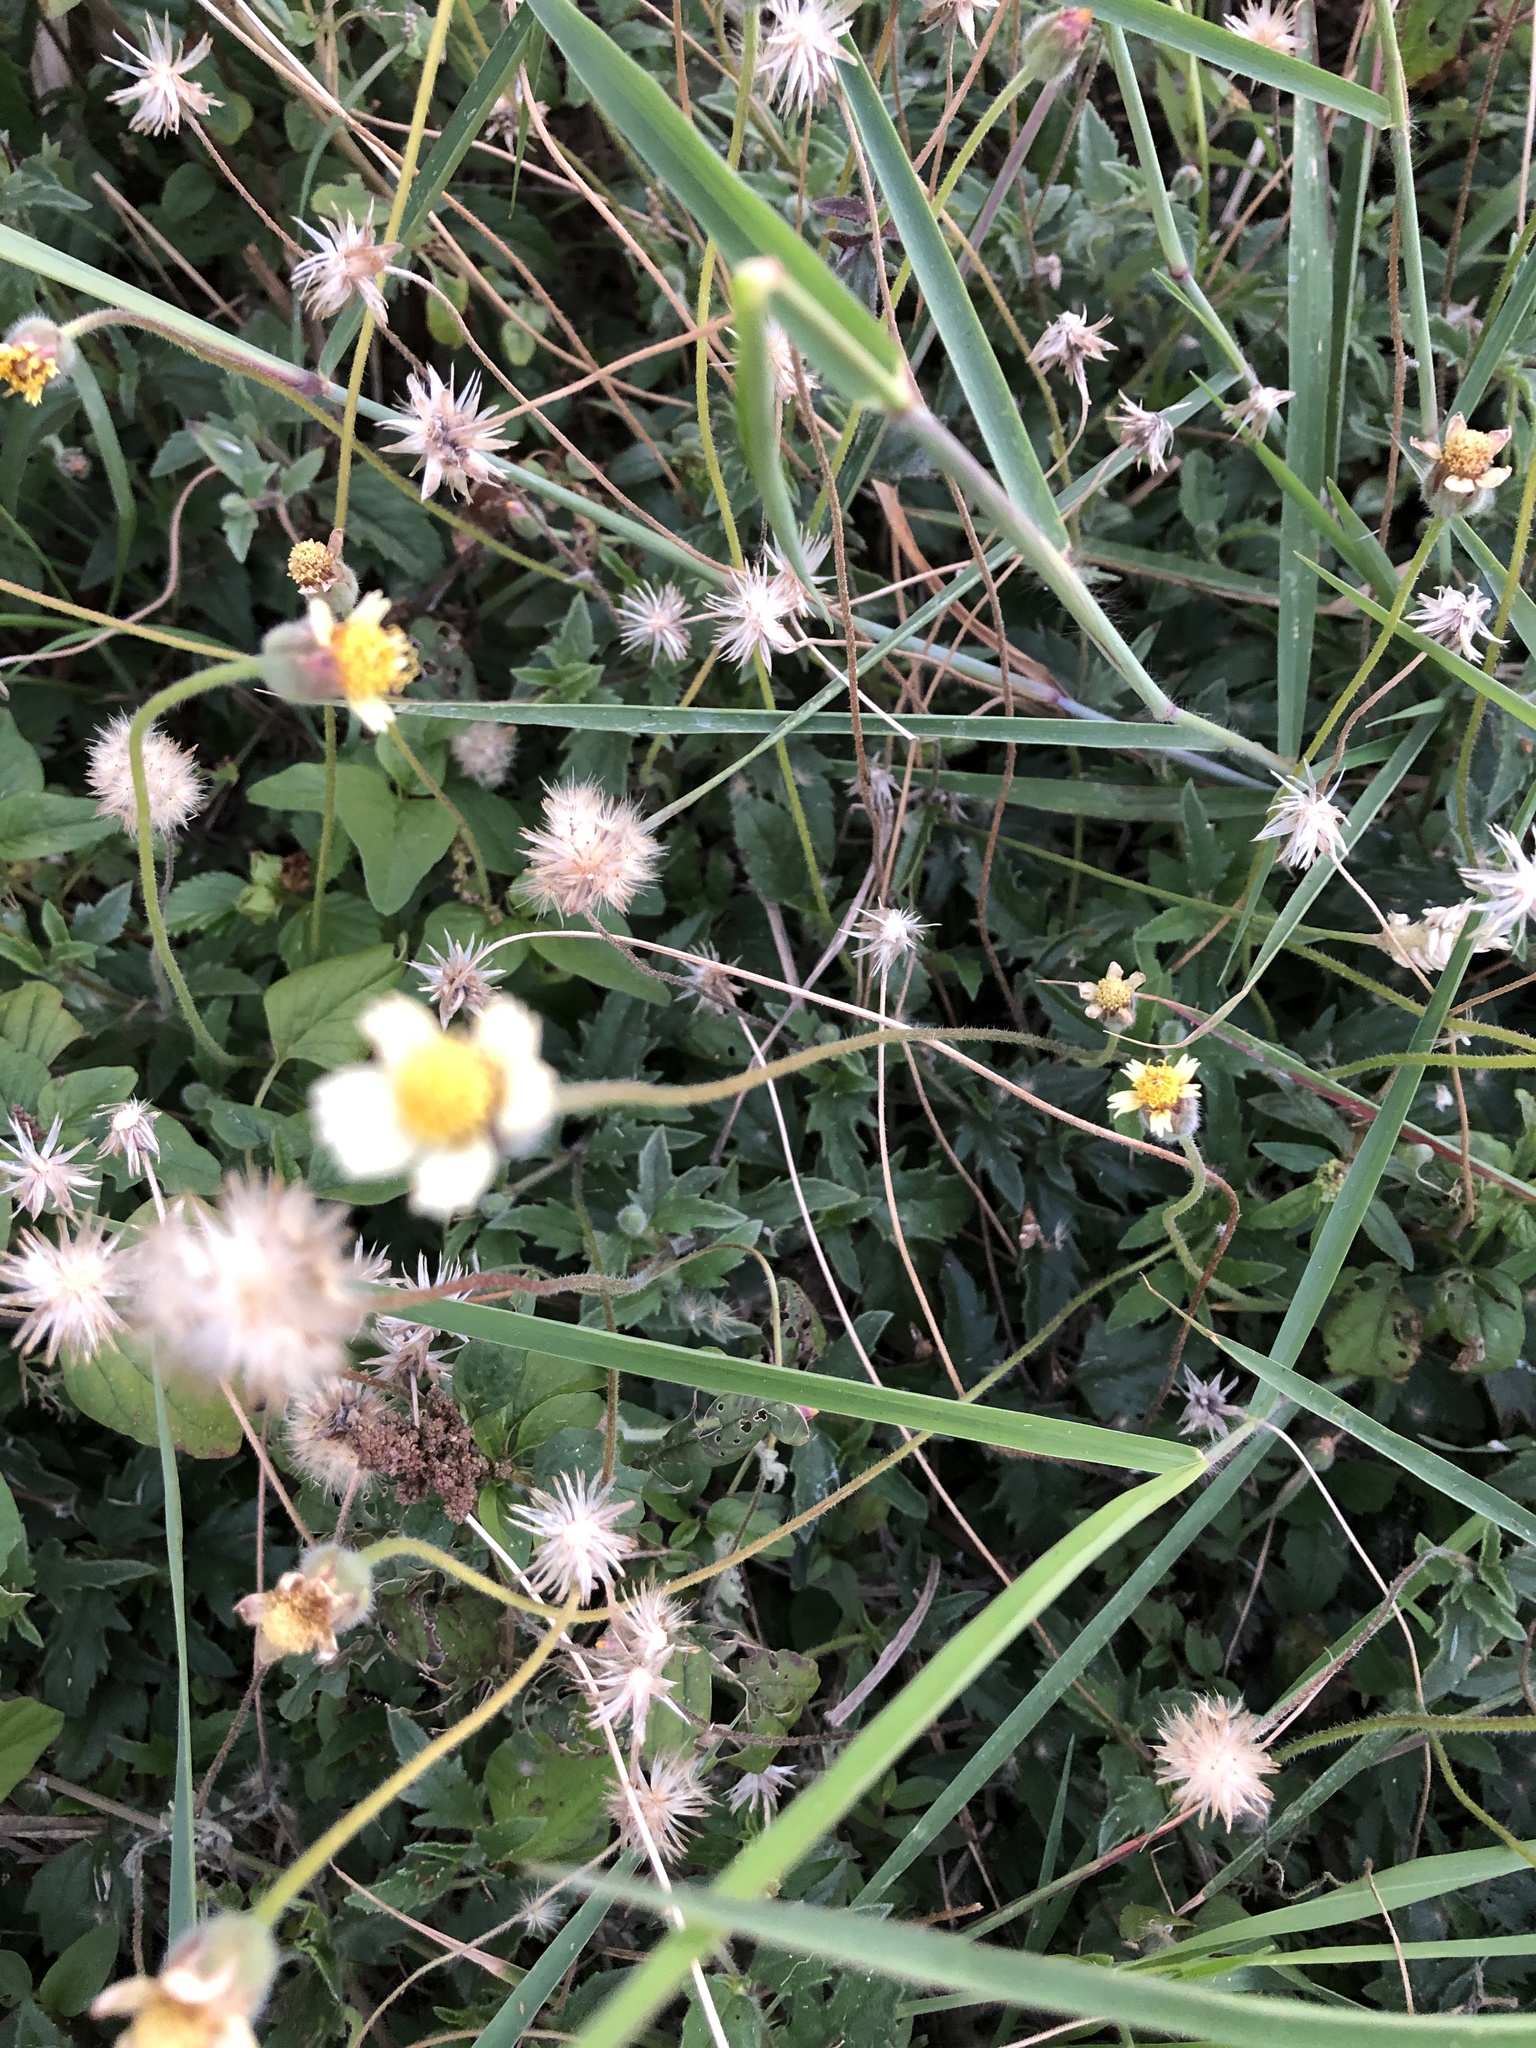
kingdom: Plantae
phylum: Tracheophyta
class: Magnoliopsida
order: Asterales
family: Asteraceae
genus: Tridax
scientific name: Tridax procumbens
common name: Coatbuttons
